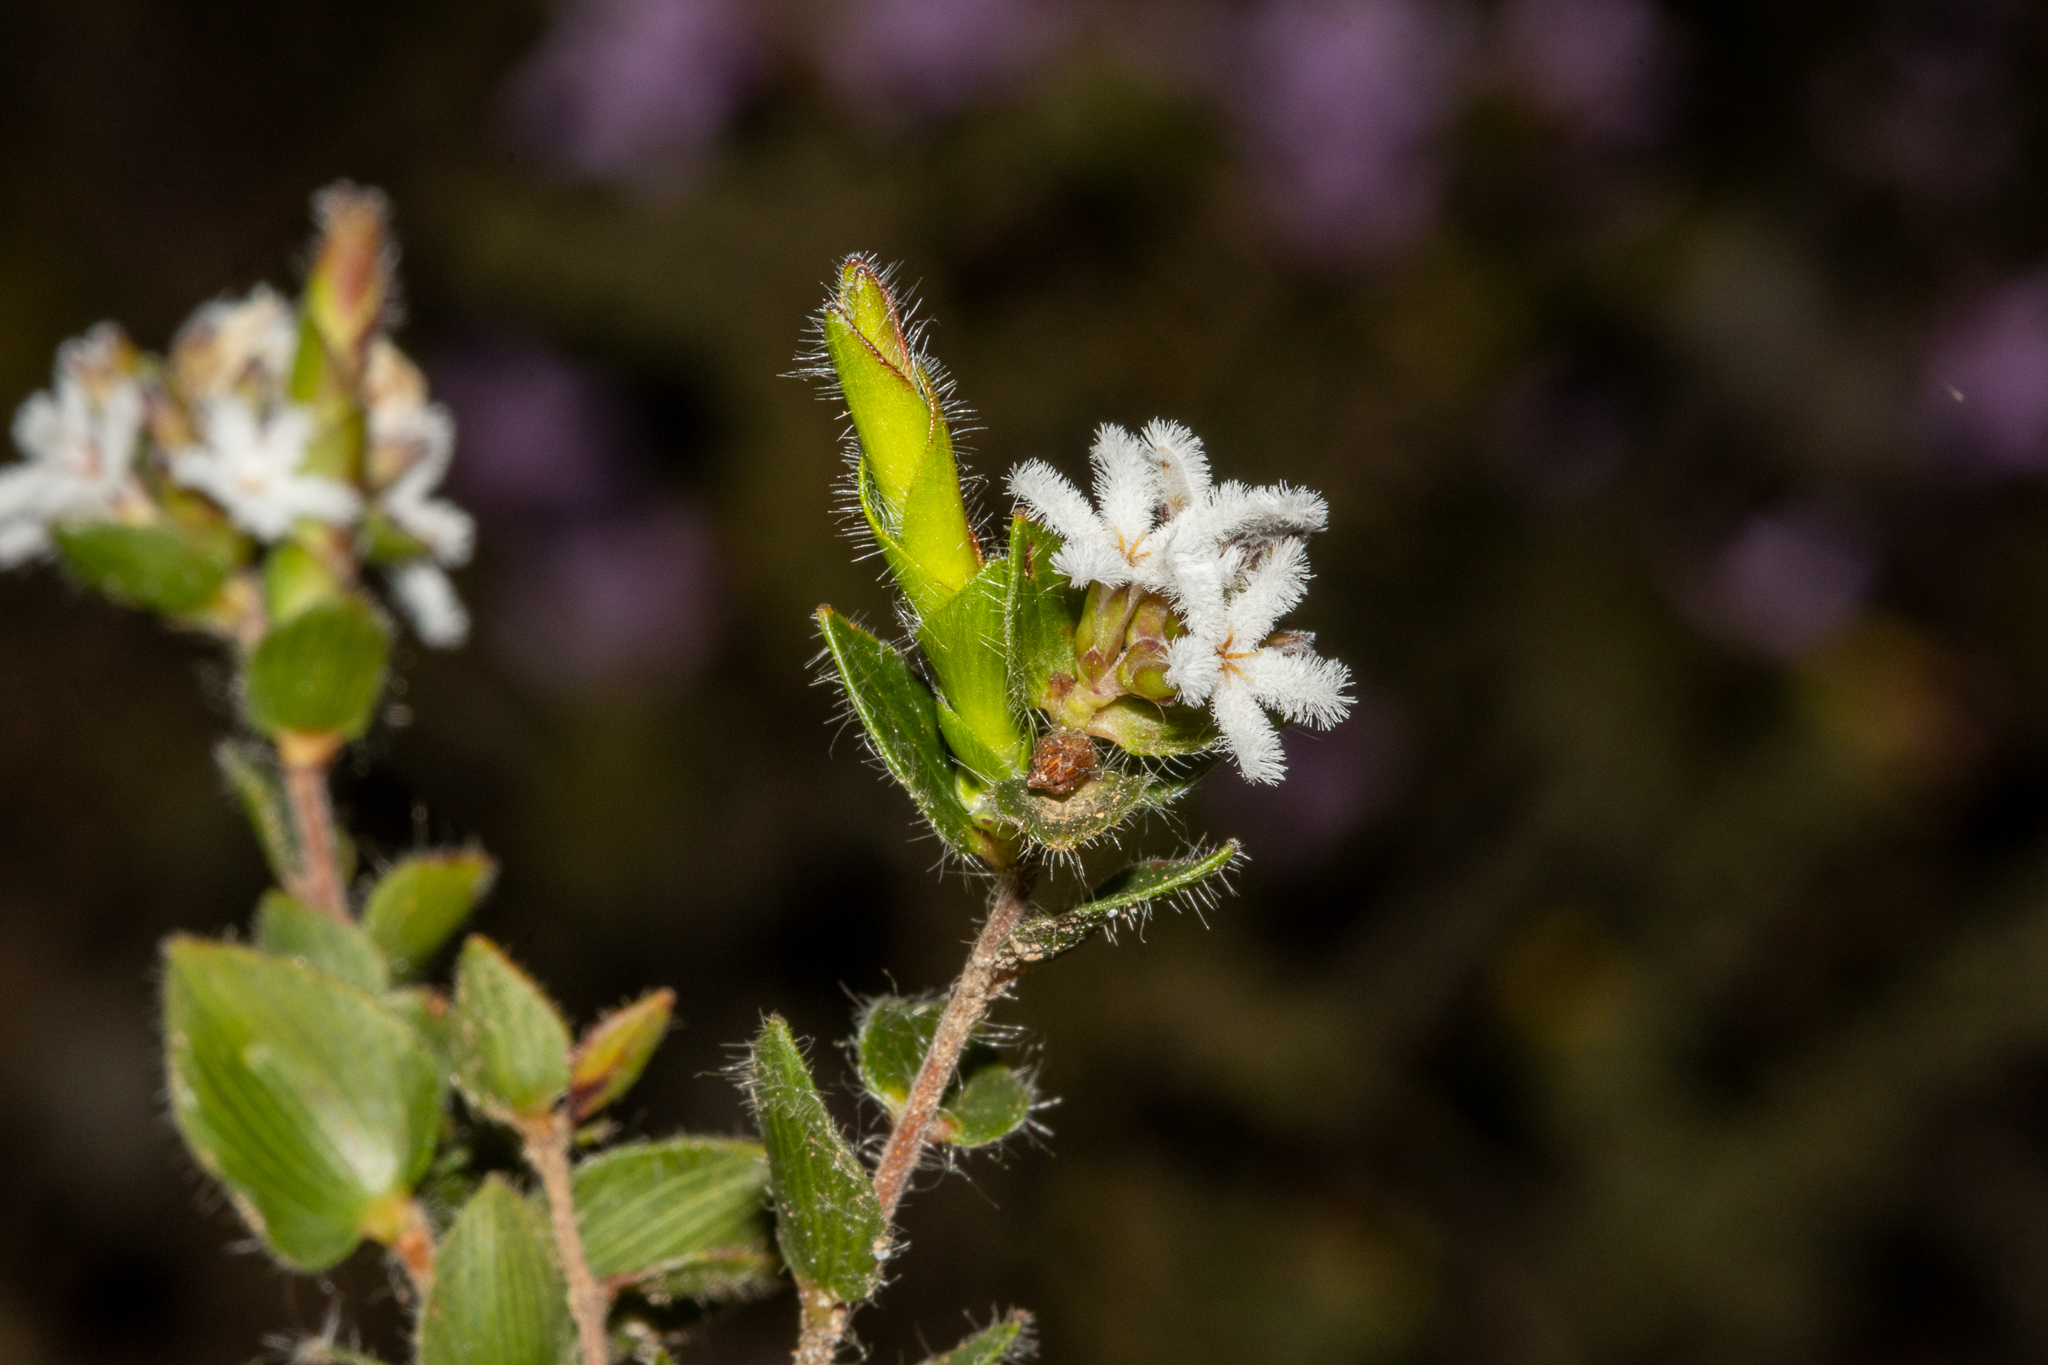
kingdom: Plantae
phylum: Tracheophyta
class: Magnoliopsida
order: Ericales
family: Ericaceae
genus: Leucopogon
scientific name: Leucopogon concurvus
